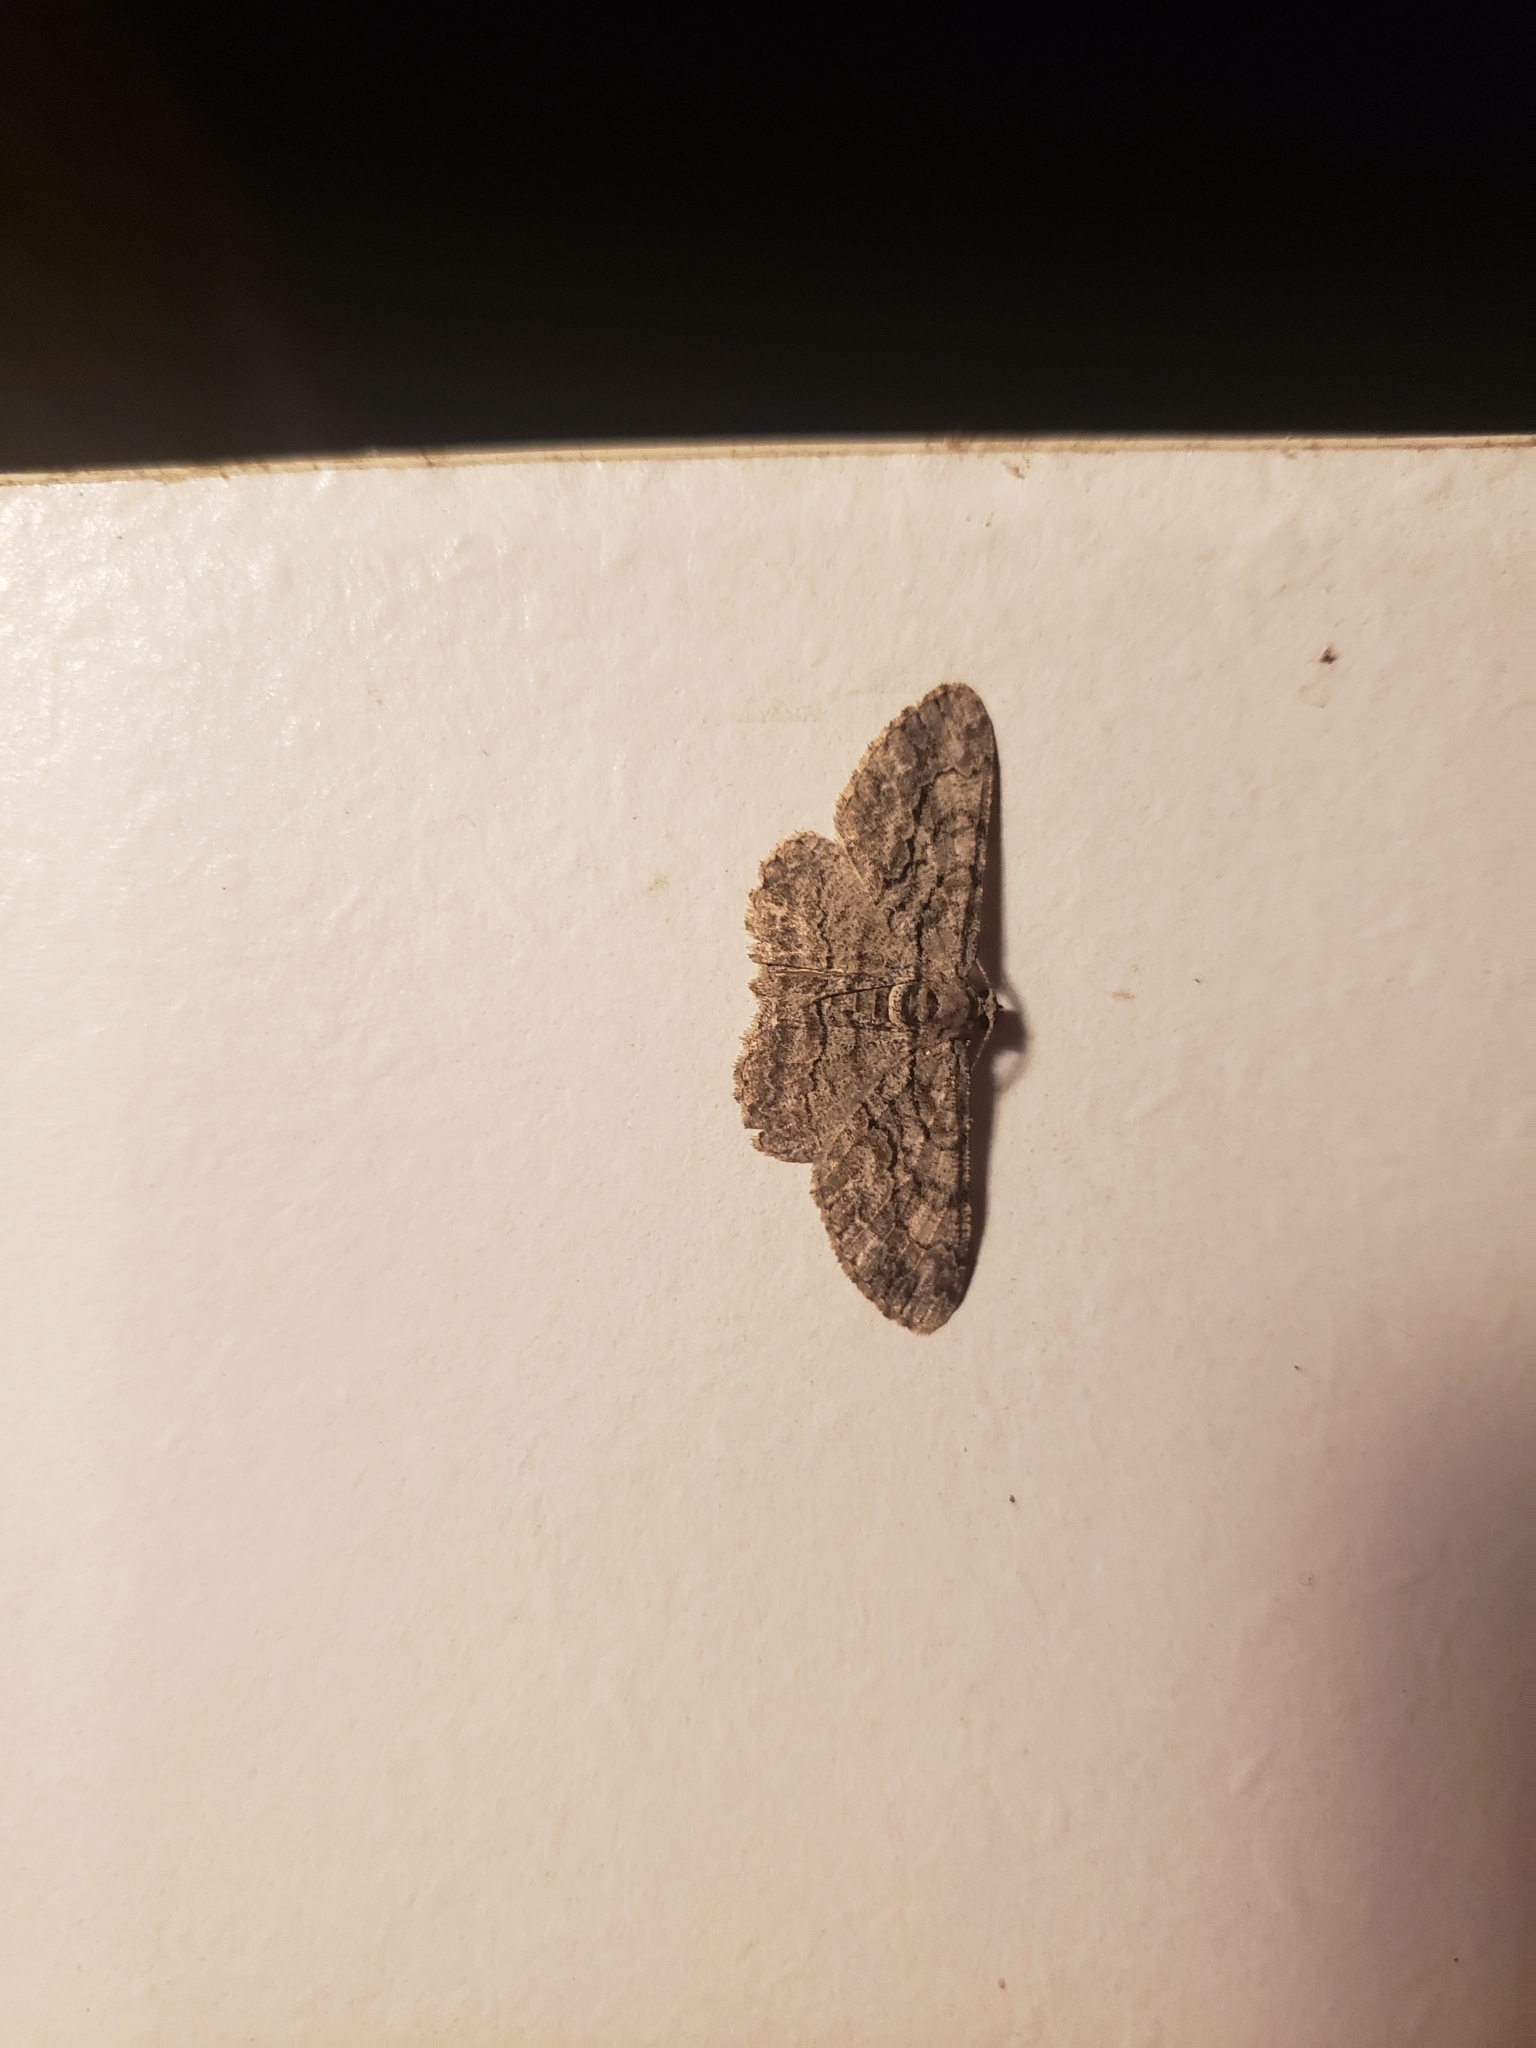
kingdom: Animalia
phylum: Arthropoda
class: Insecta
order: Lepidoptera
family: Geometridae
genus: Anavitrinella
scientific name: Anavitrinella pampinaria
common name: Common gray
